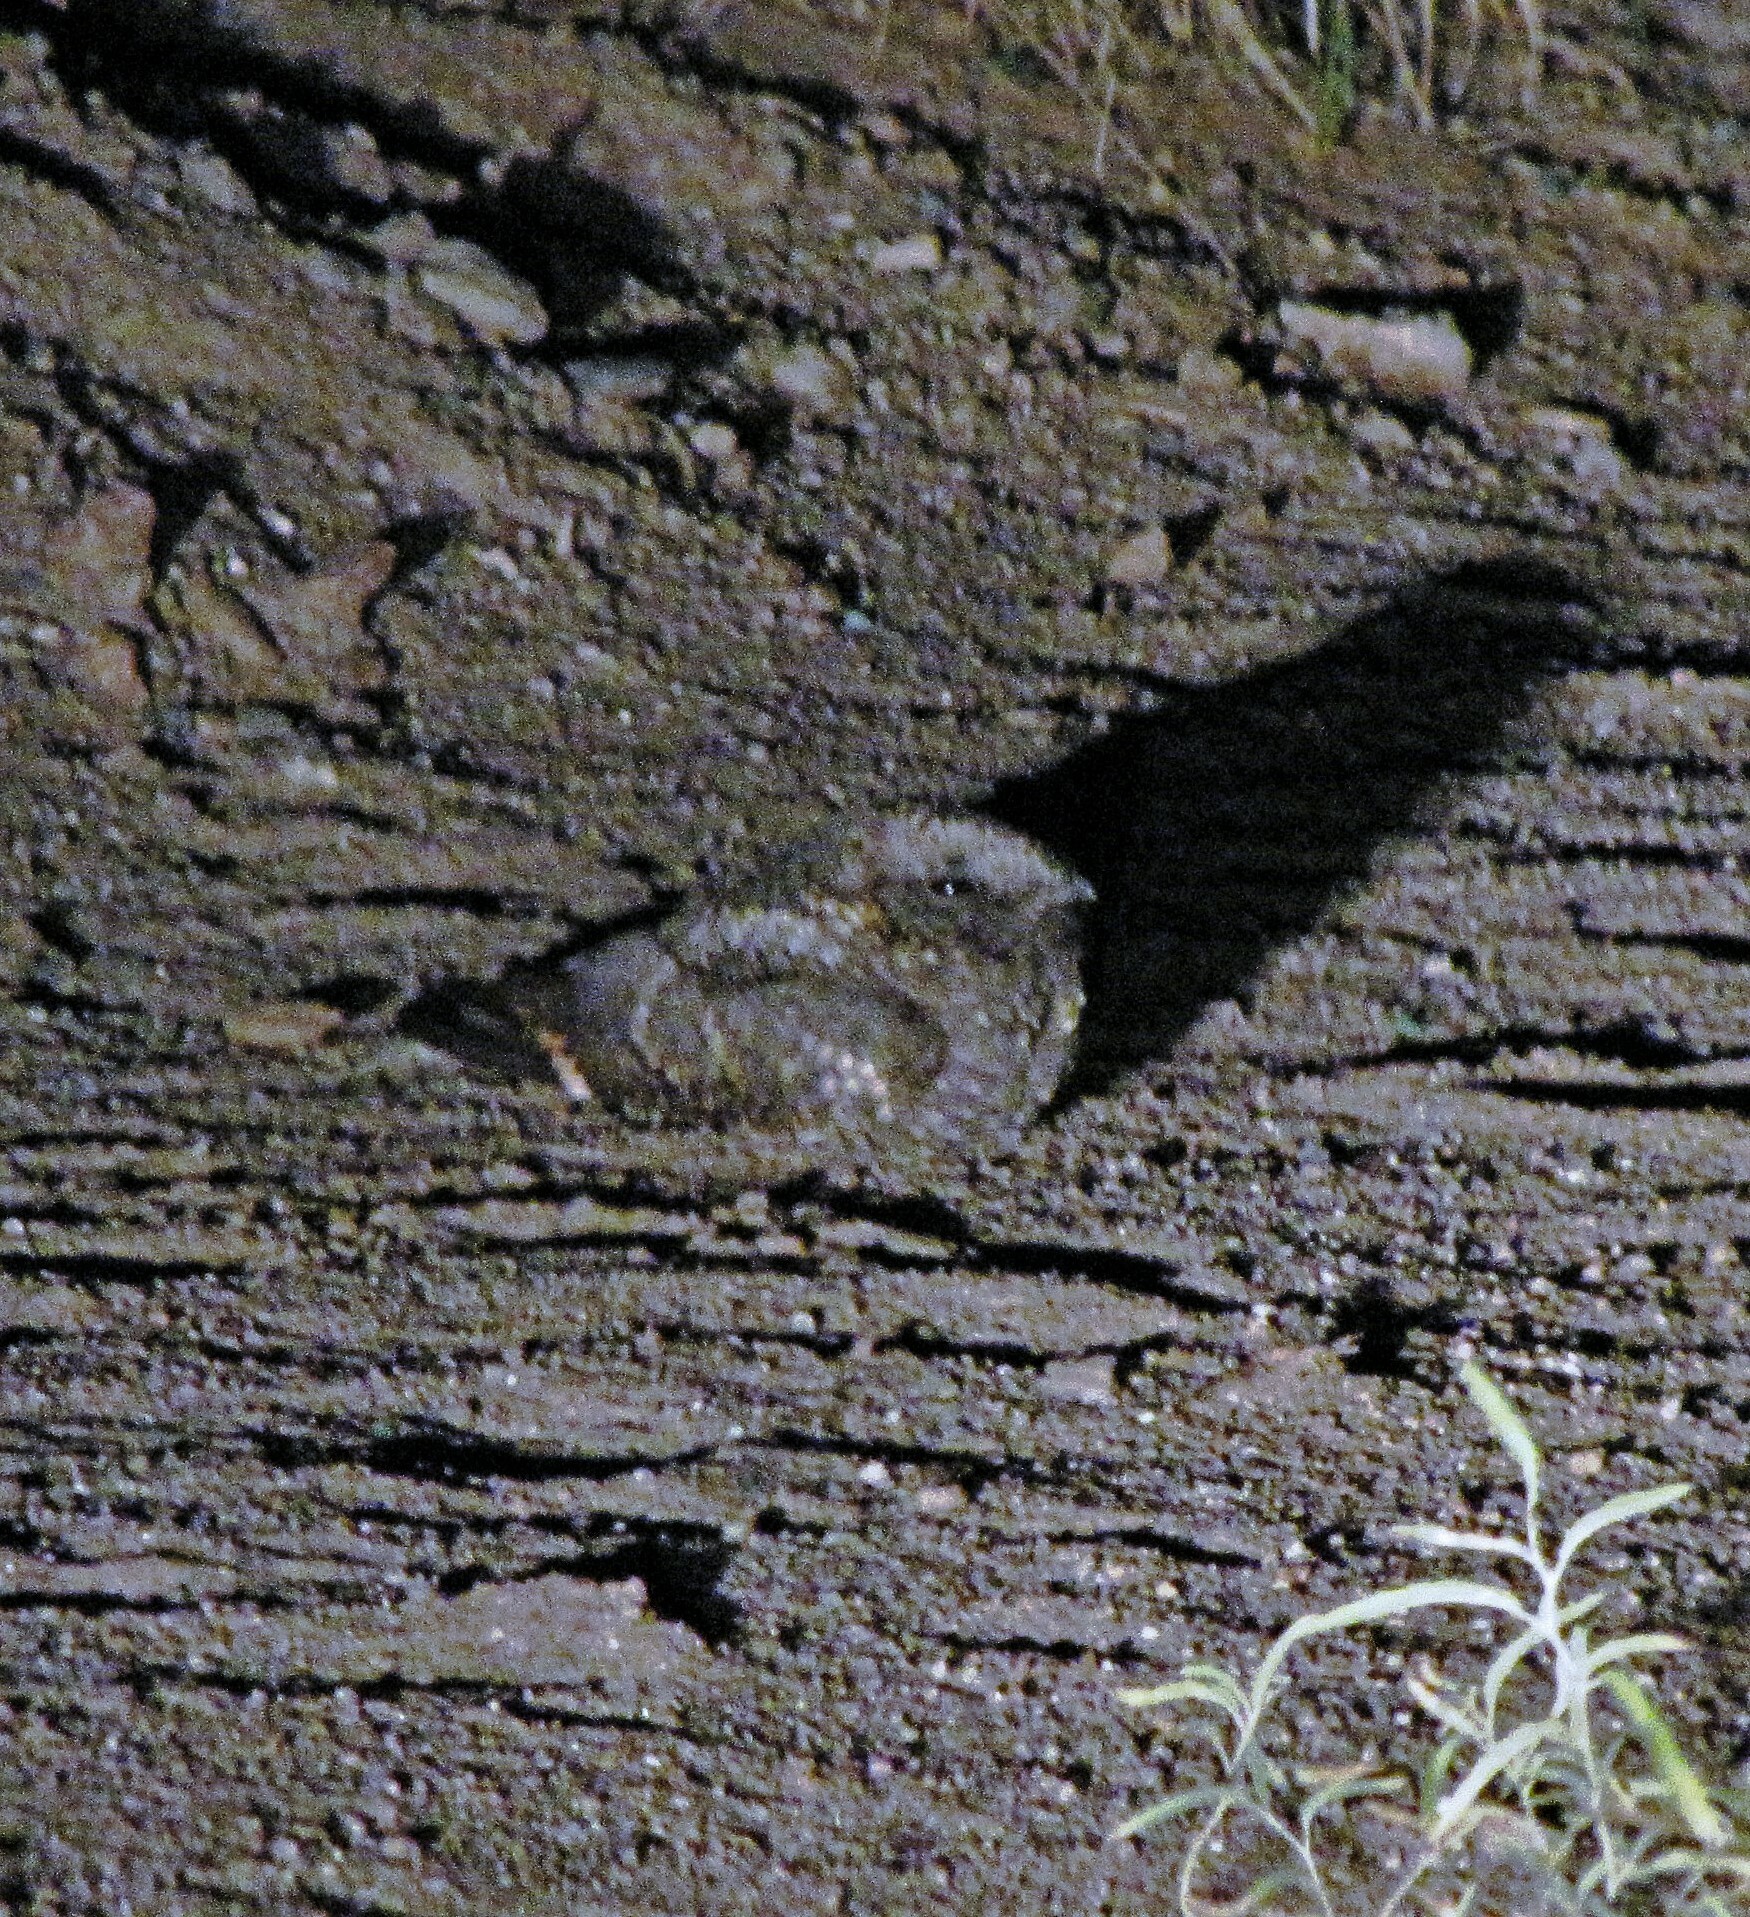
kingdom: Animalia
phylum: Chordata
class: Aves
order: Caprimulgiformes
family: Caprimulgidae
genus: Systellura
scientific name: Systellura longirostris
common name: Band-winged nightjar
